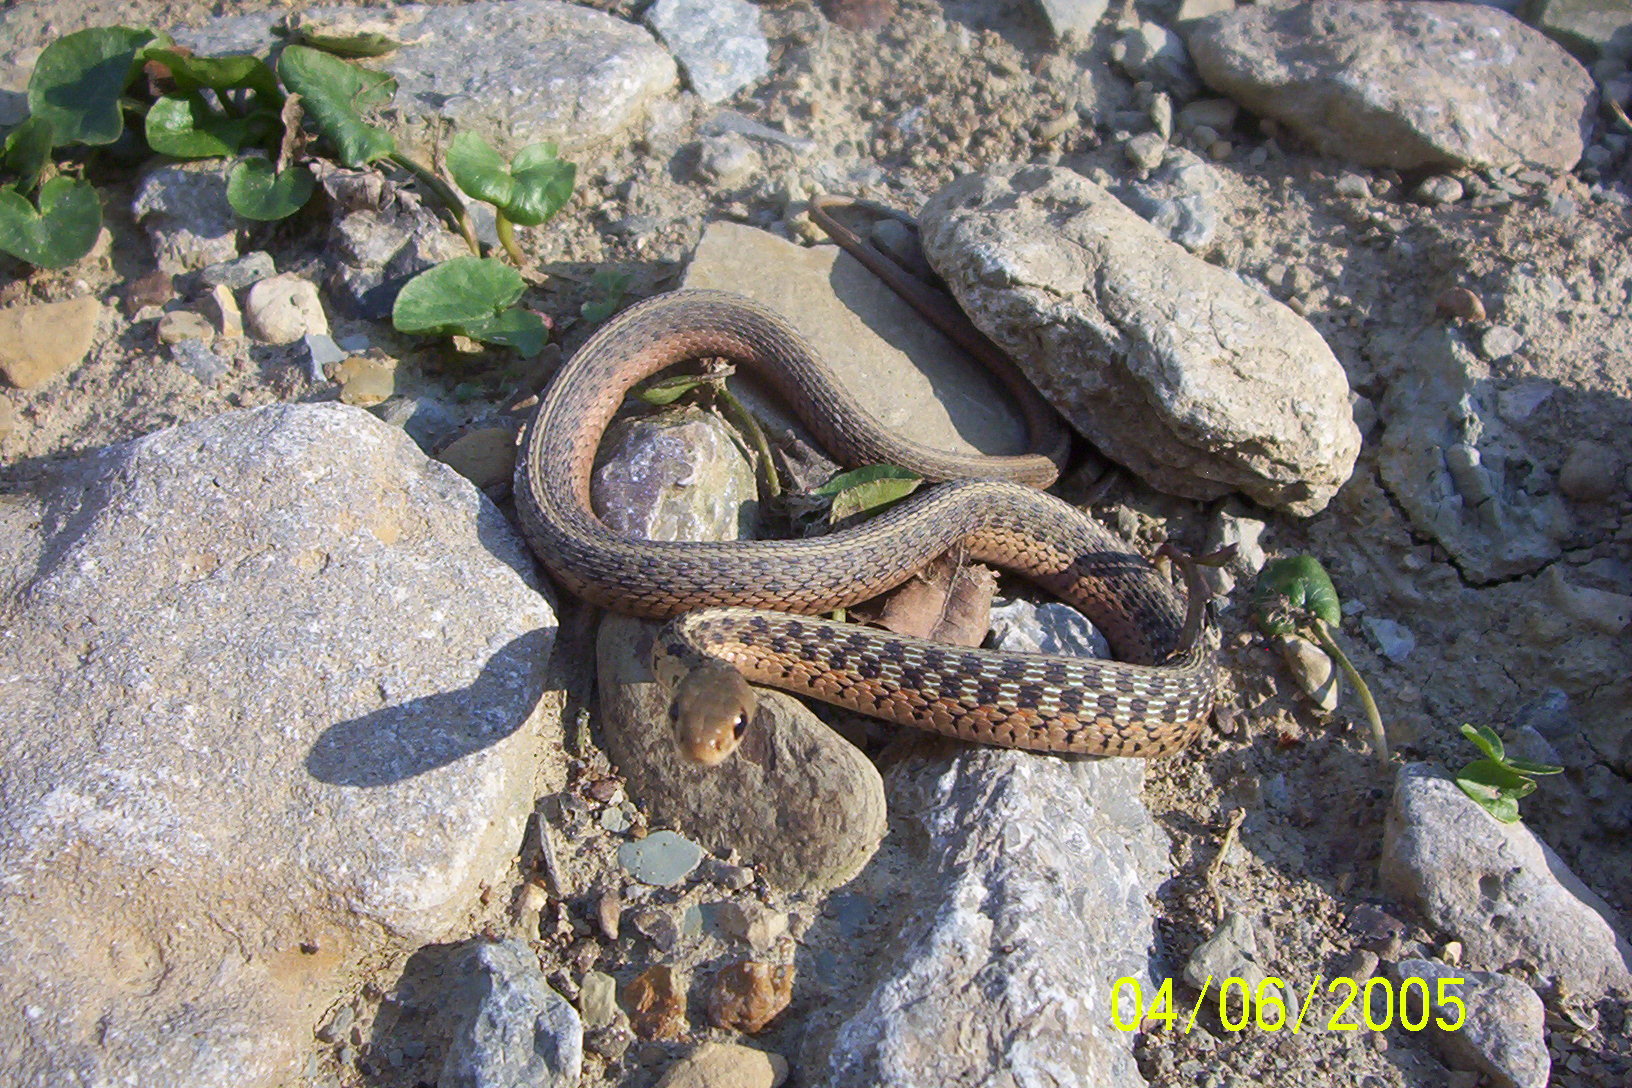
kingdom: Animalia
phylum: Chordata
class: Squamata
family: Colubridae
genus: Thamnophis
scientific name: Thamnophis sirtalis
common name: Common garter snake
